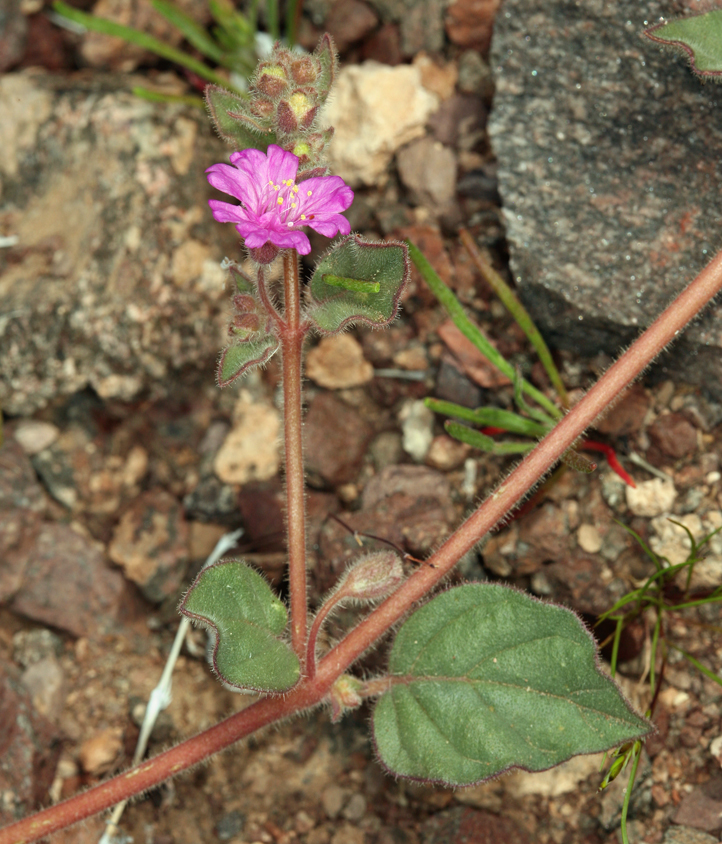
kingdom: Plantae
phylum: Tracheophyta
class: Magnoliopsida
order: Caryophyllales
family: Nyctaginaceae
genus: Allionia
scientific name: Allionia incarnata
